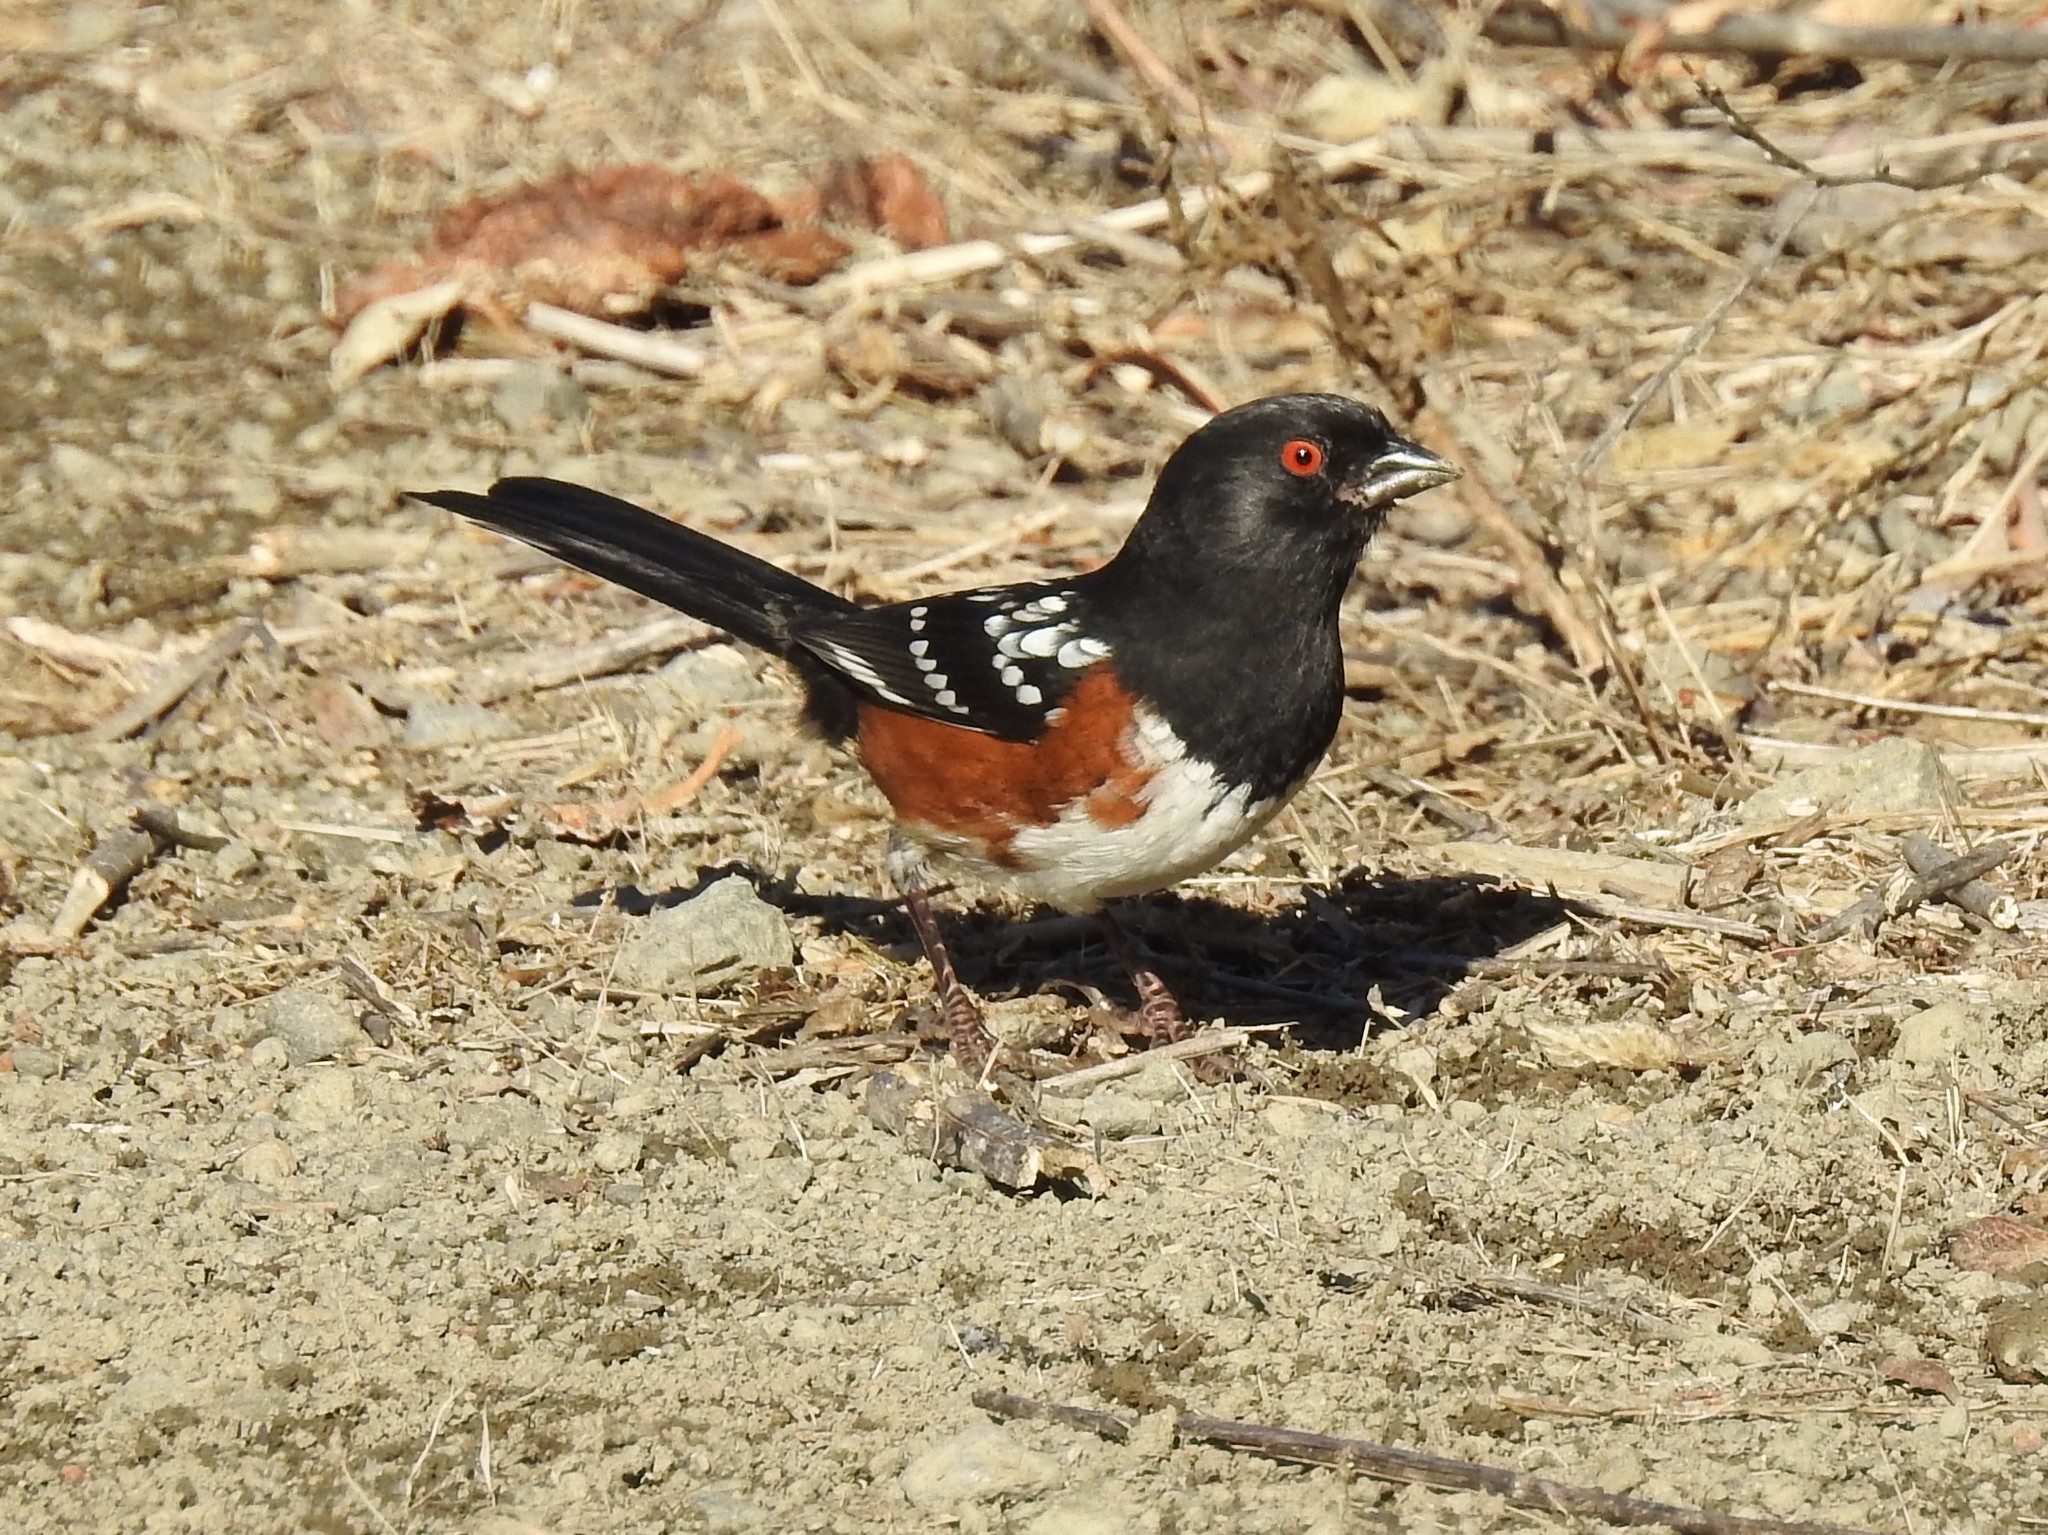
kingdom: Animalia
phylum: Chordata
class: Aves
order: Passeriformes
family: Passerellidae
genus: Pipilo
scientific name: Pipilo maculatus
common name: Spotted towhee
